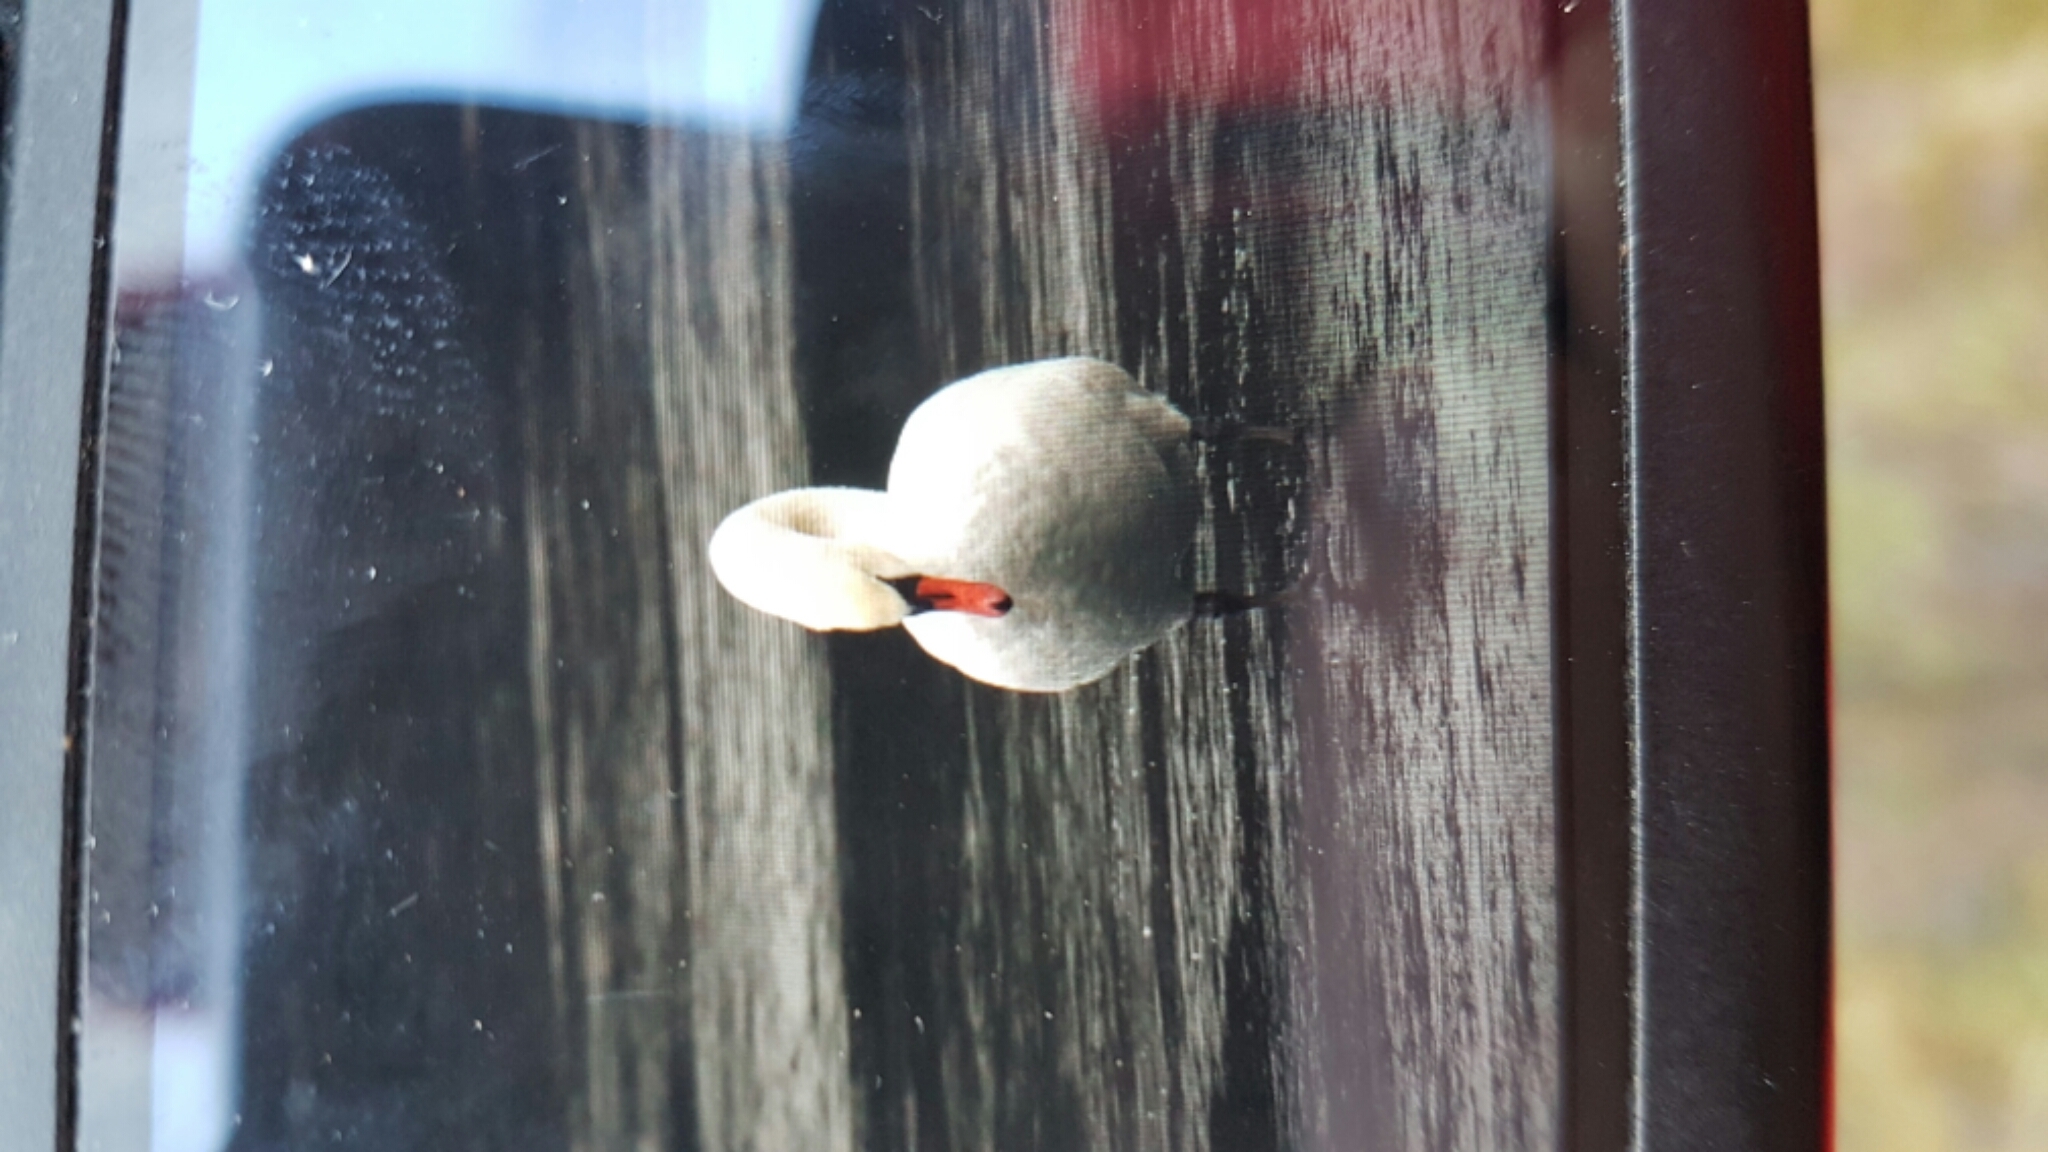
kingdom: Animalia
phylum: Chordata
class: Aves
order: Anseriformes
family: Anatidae
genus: Cygnus
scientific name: Cygnus olor
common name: Mute swan
